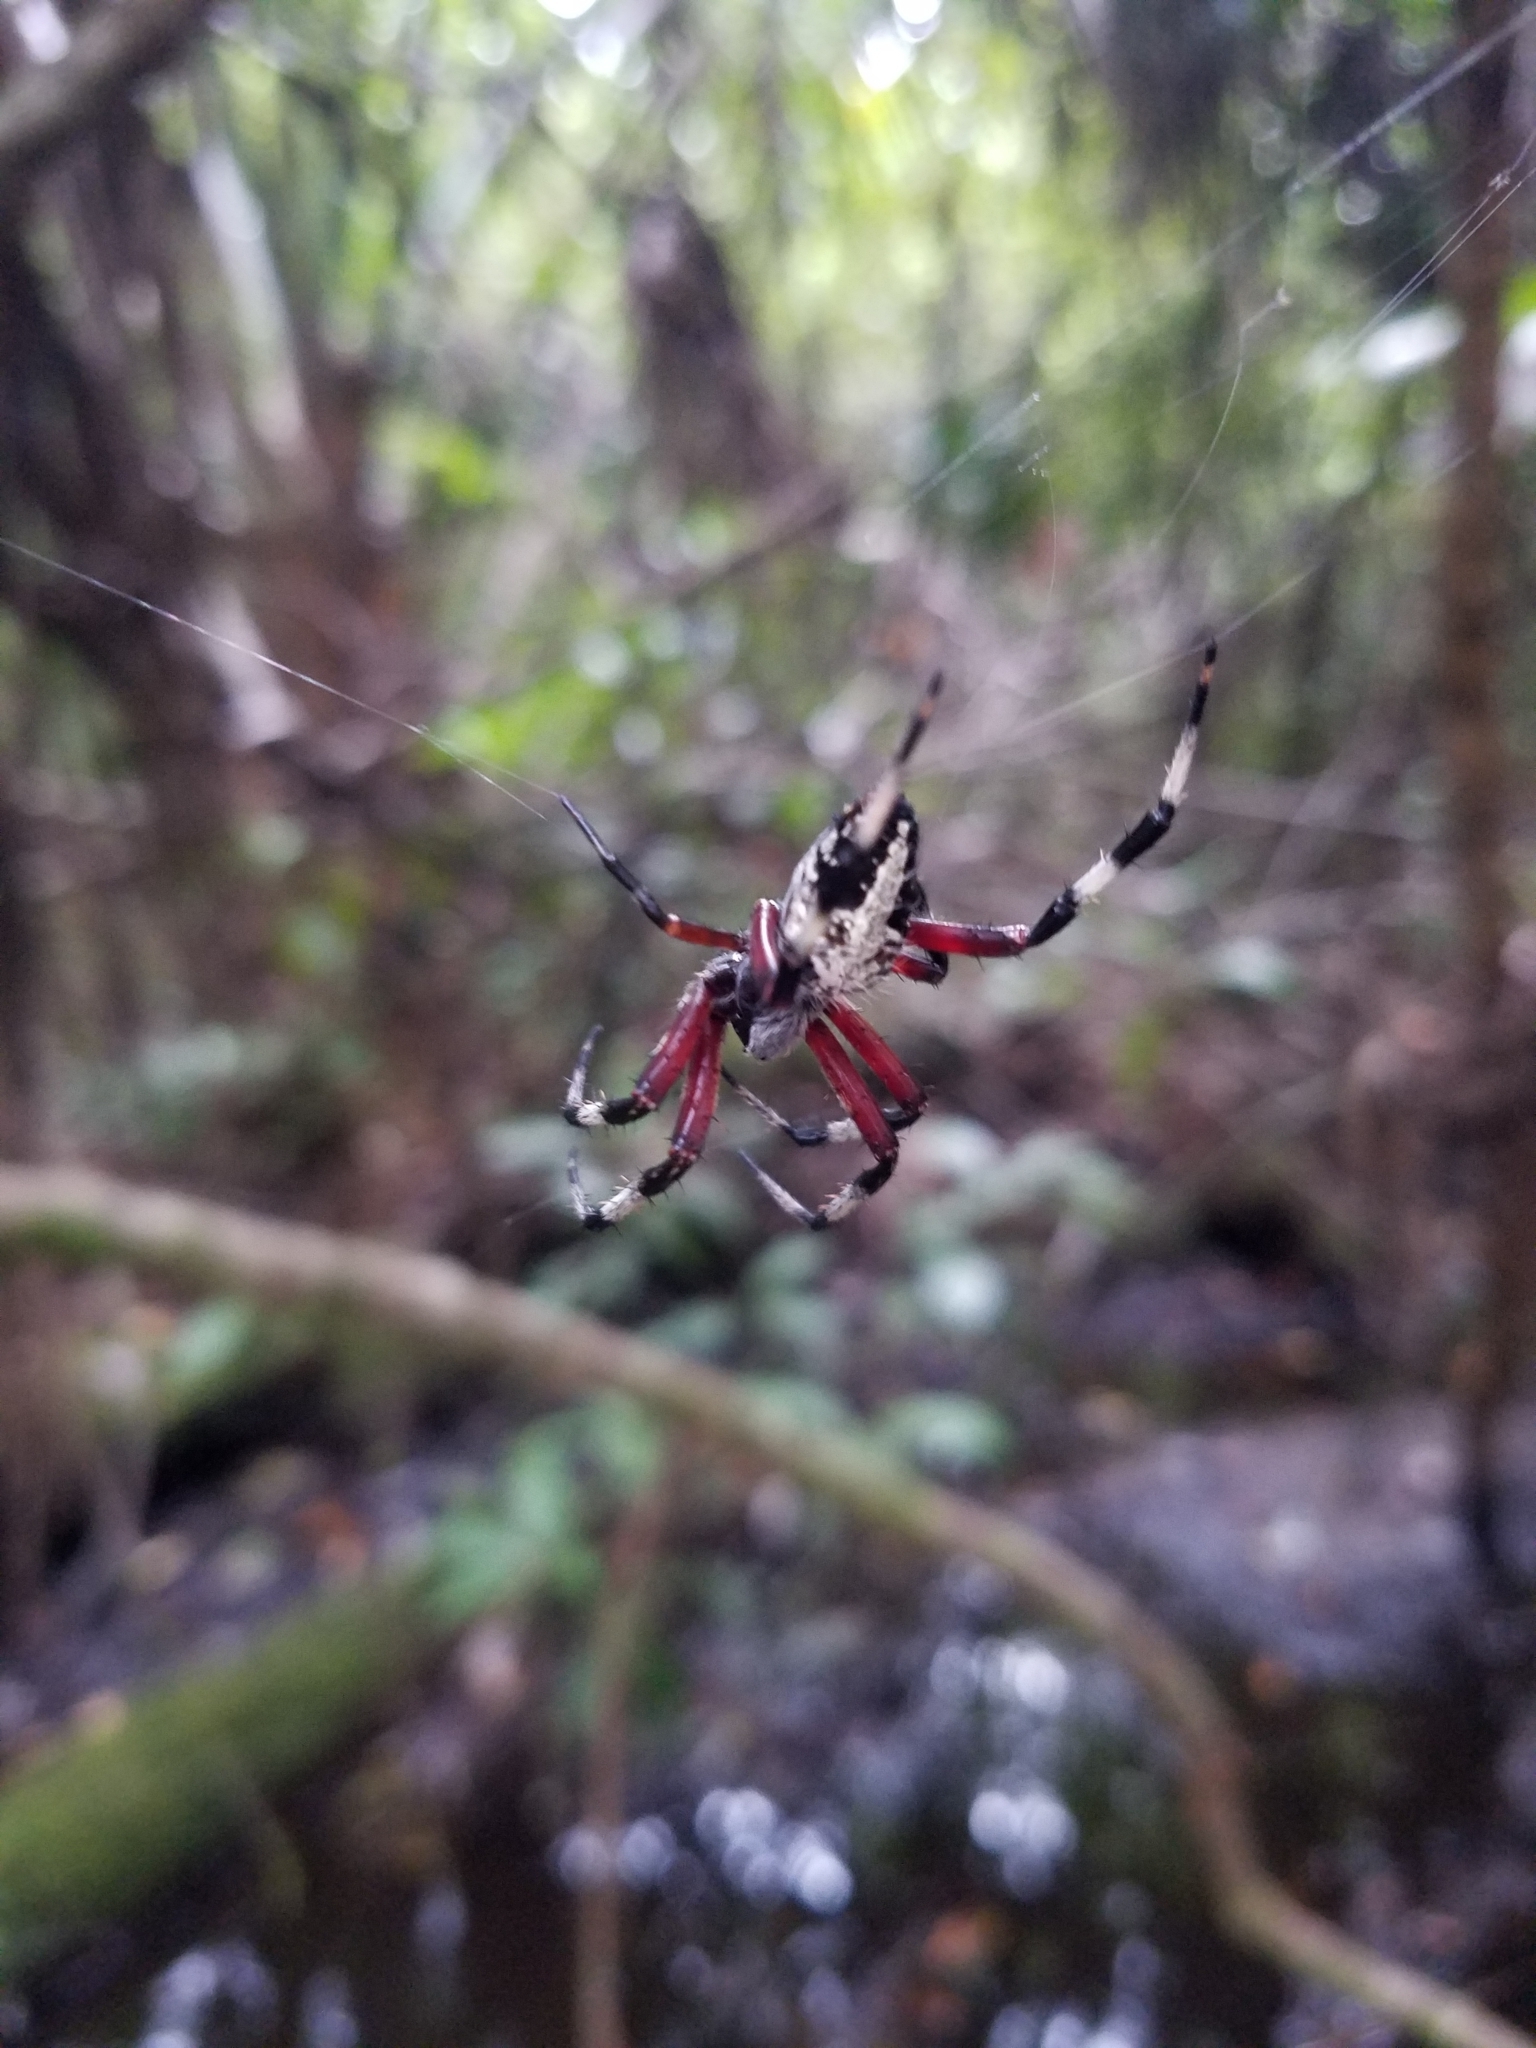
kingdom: Animalia
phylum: Arthropoda
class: Arachnida
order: Araneae
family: Araneidae
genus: Neoscona
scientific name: Neoscona domiciliorum
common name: Red-femured spotted orbweaver
